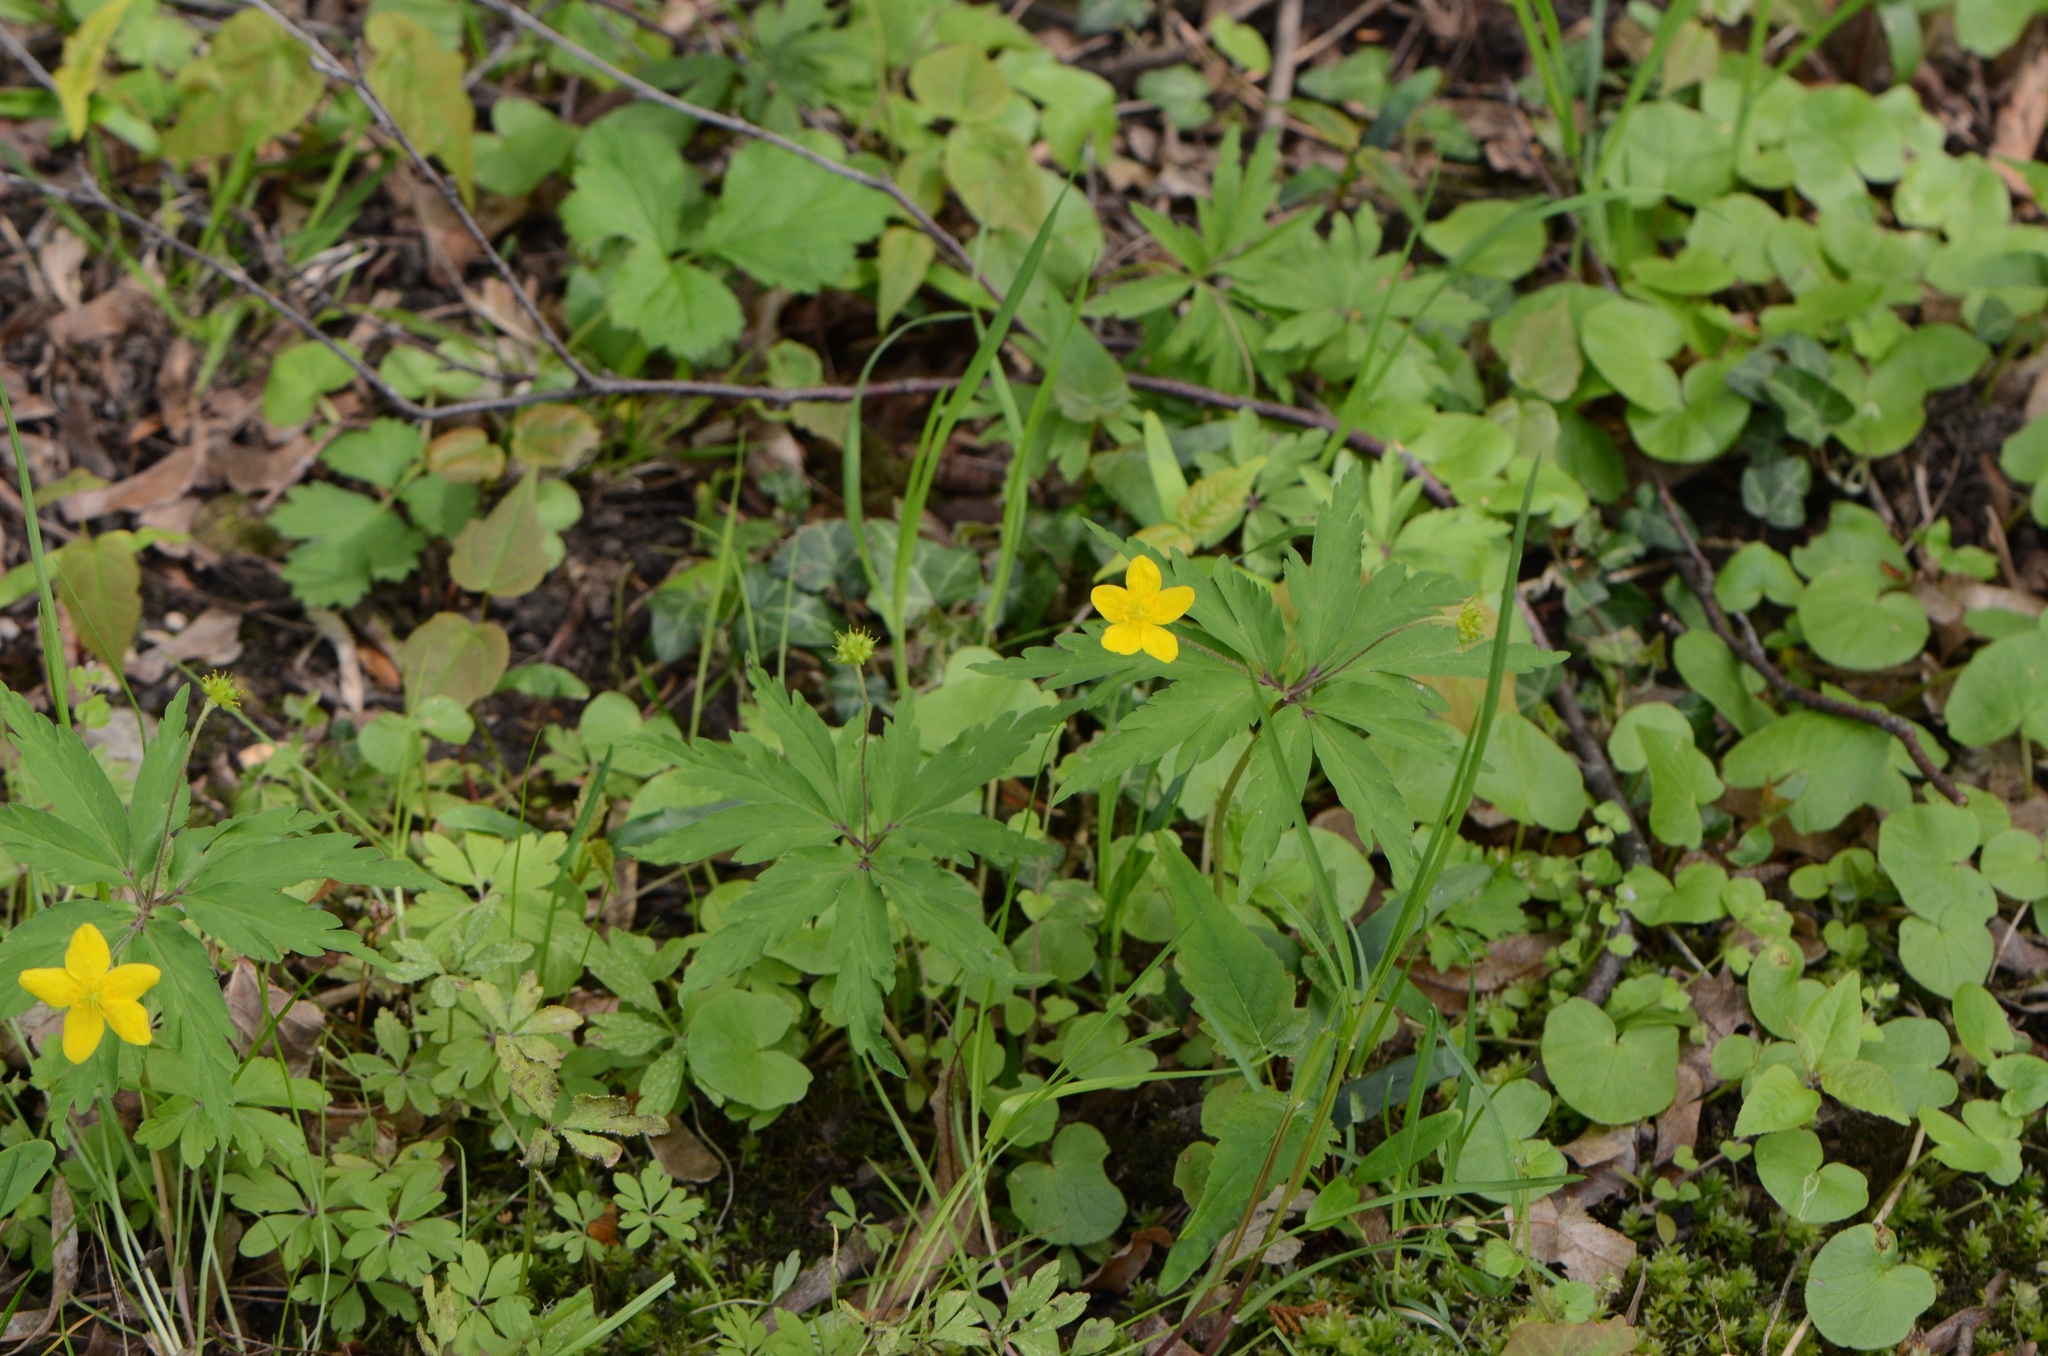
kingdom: Plantae
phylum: Tracheophyta
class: Magnoliopsida
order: Ranunculales
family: Ranunculaceae
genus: Anemone
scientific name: Anemone ranunculoides
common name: Yellow anemone
